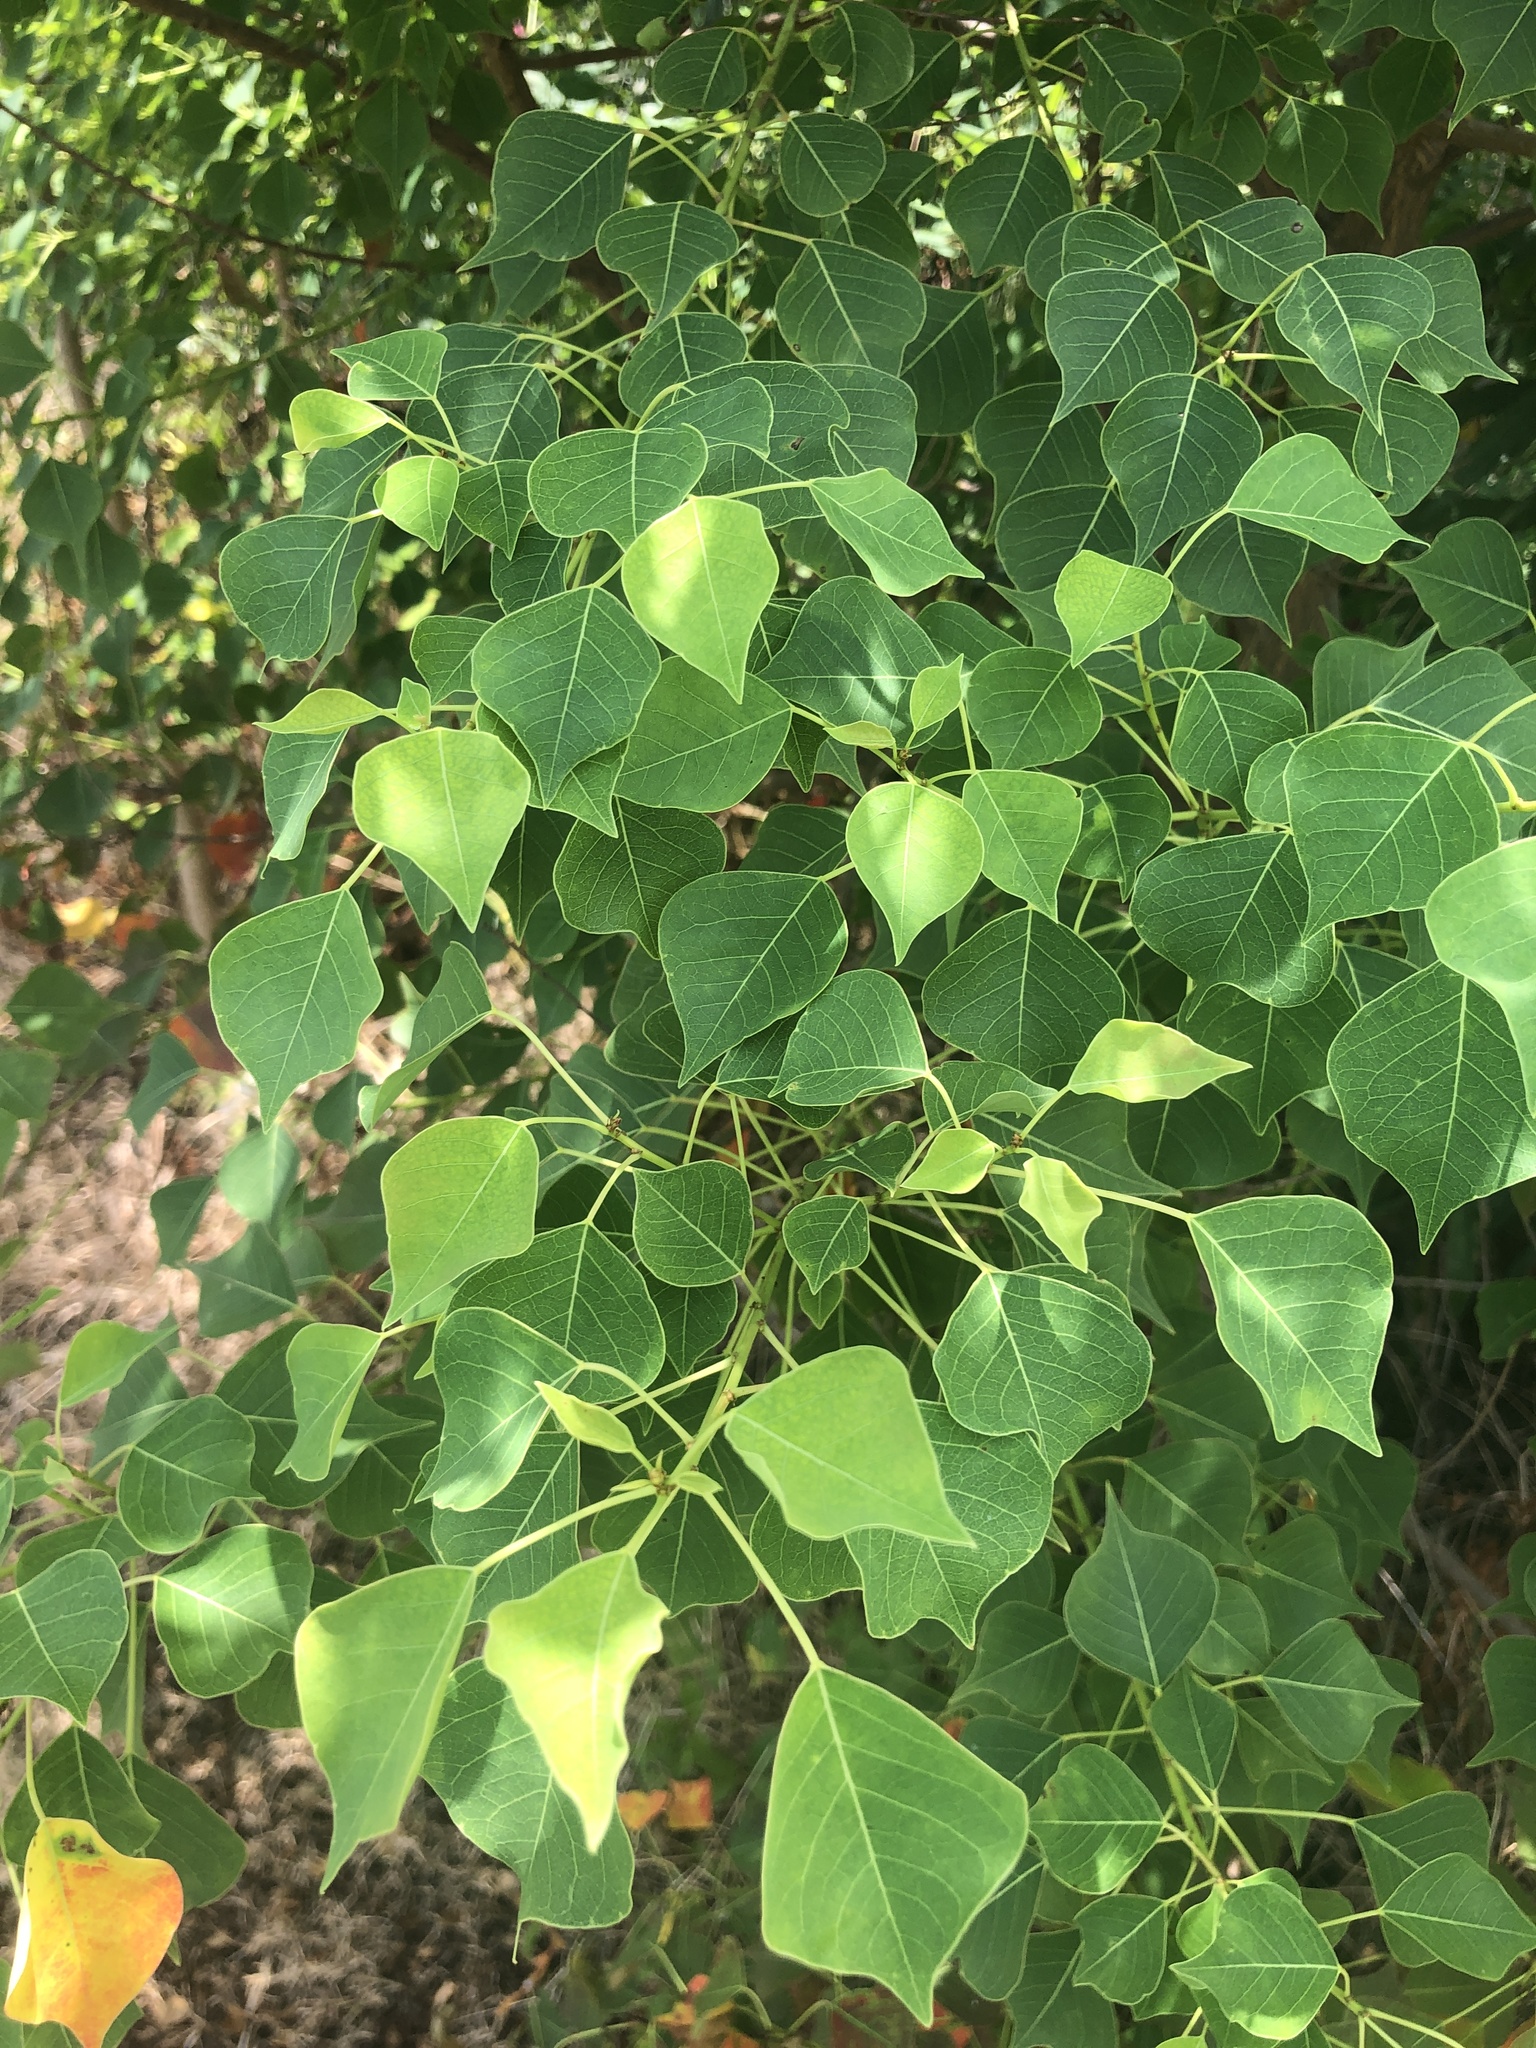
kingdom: Plantae
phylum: Tracheophyta
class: Magnoliopsida
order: Malpighiales
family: Euphorbiaceae
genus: Triadica
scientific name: Triadica sebifera
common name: Chinese tallow
